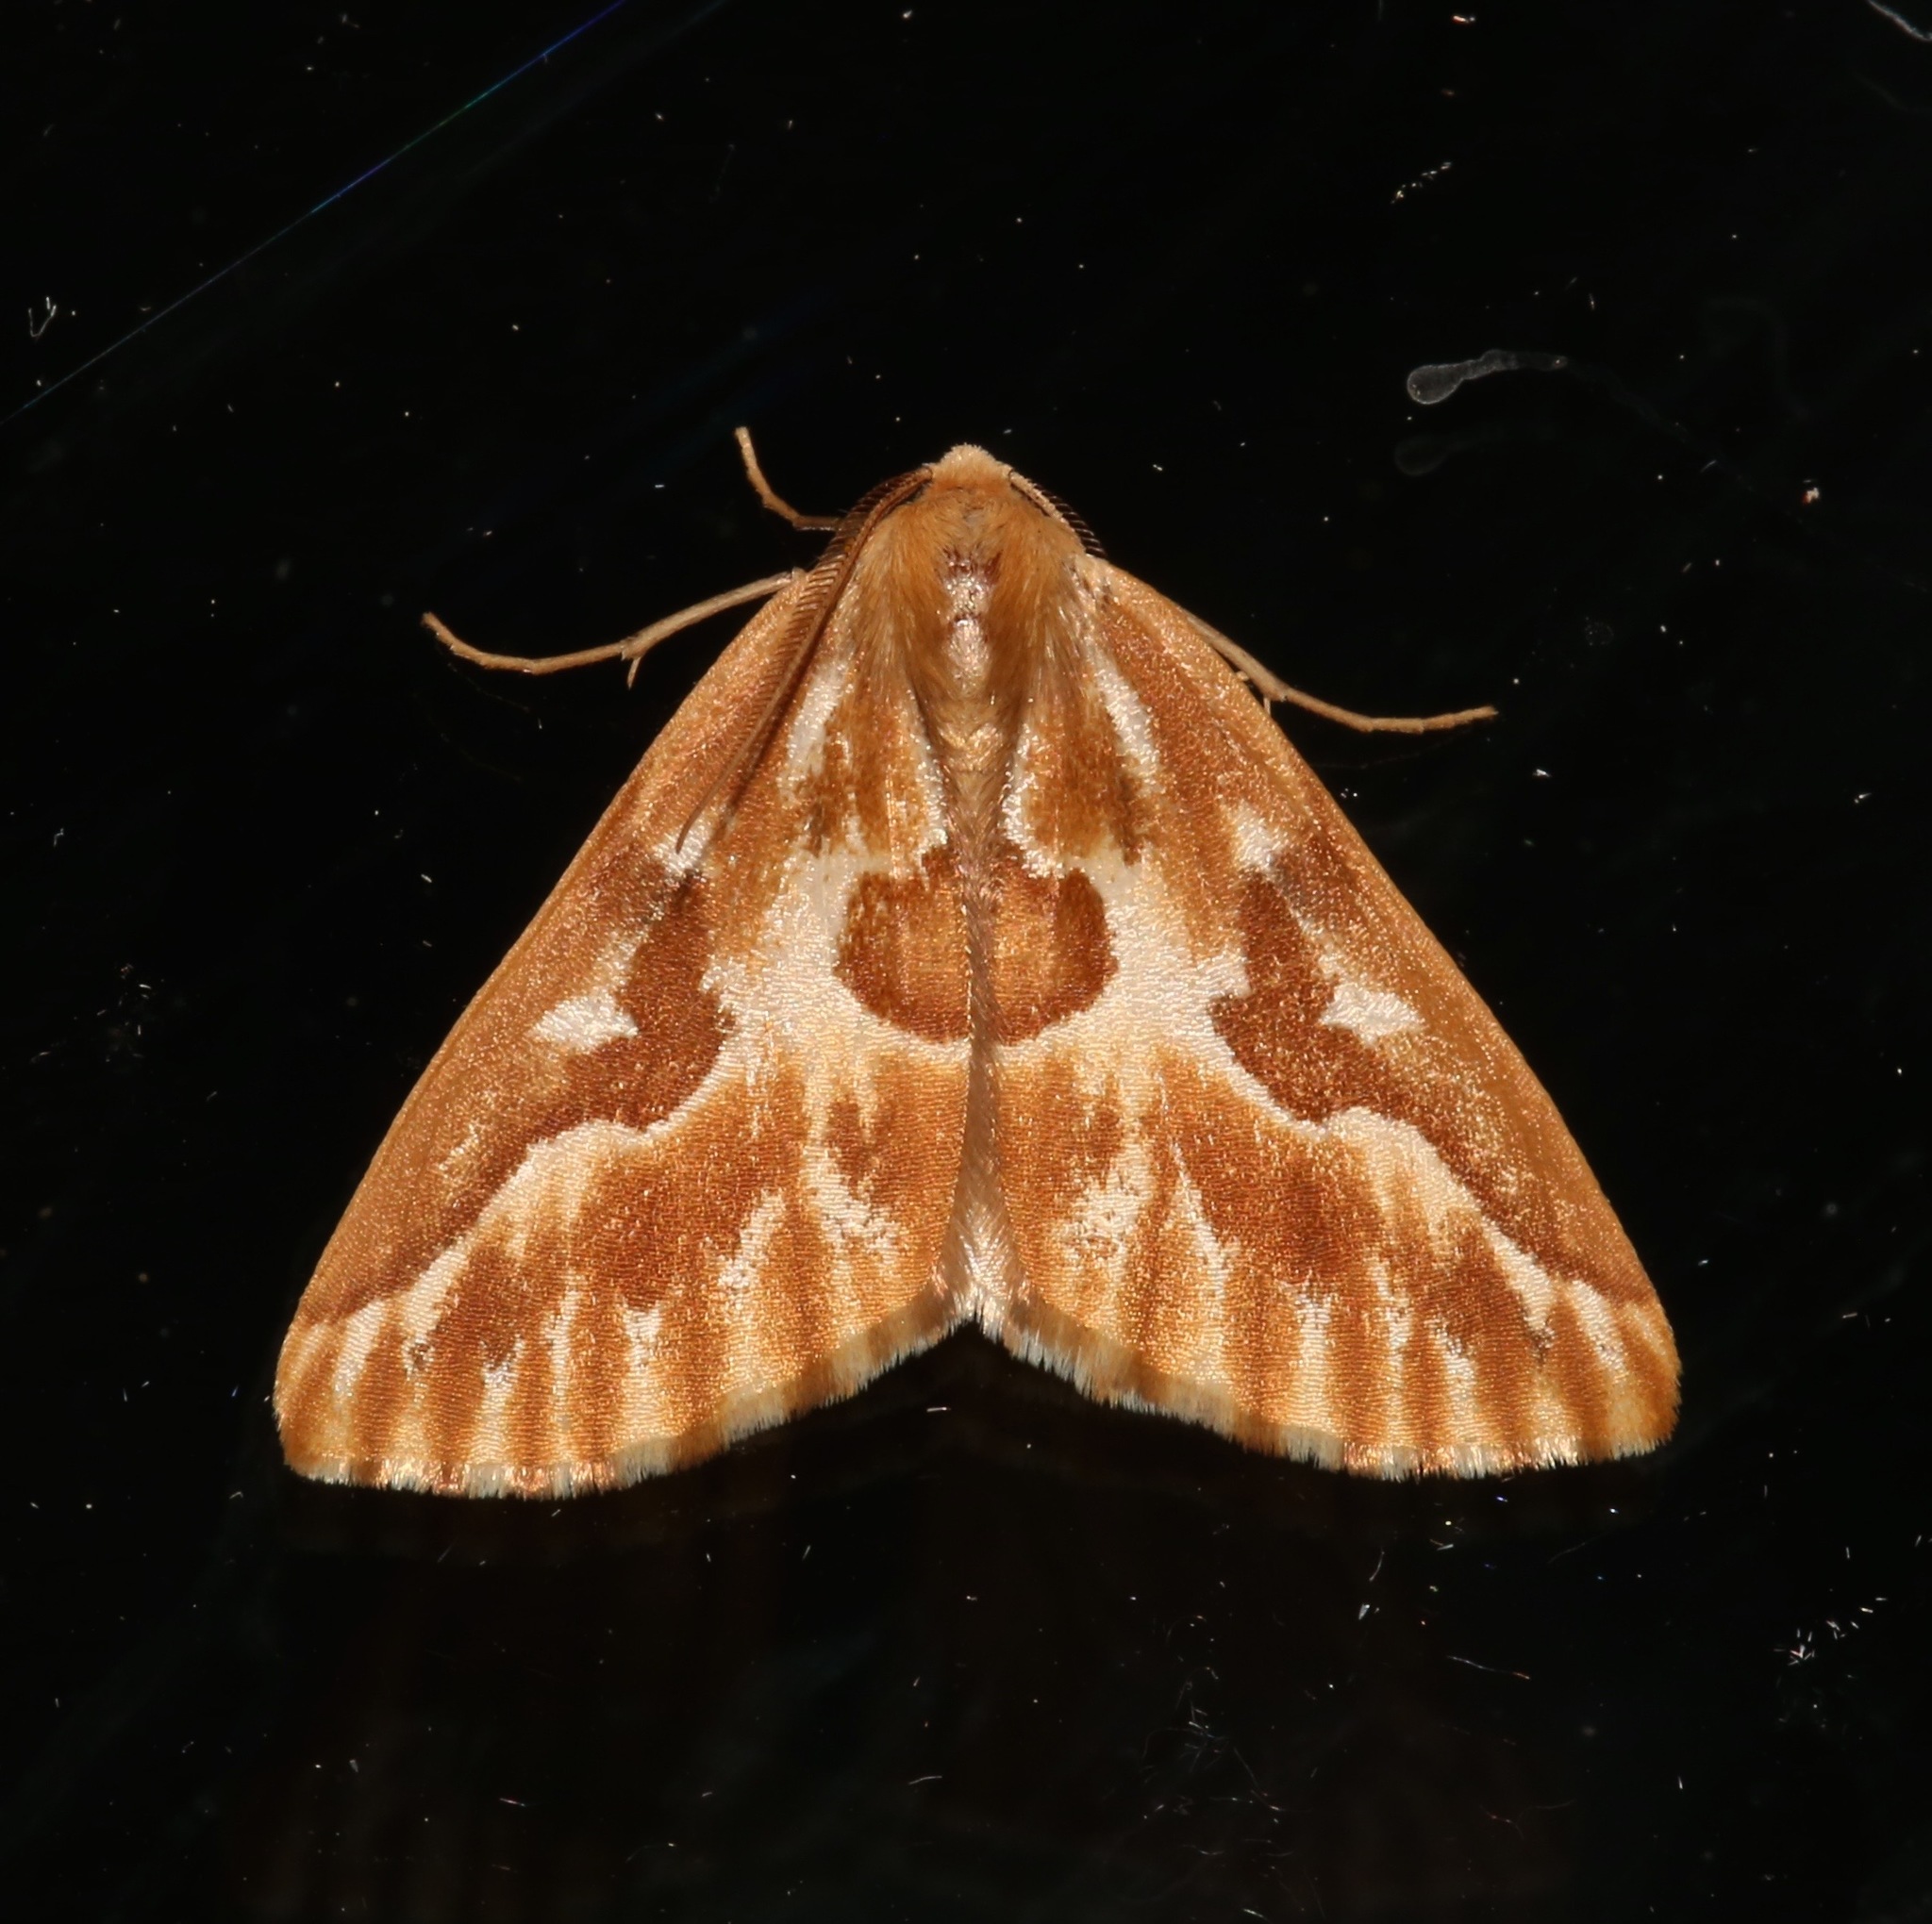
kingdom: Animalia
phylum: Arthropoda
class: Insecta
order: Lepidoptera
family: Geometridae
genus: Caripeta
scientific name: Caripeta piniata
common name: Northern pine looper moth
